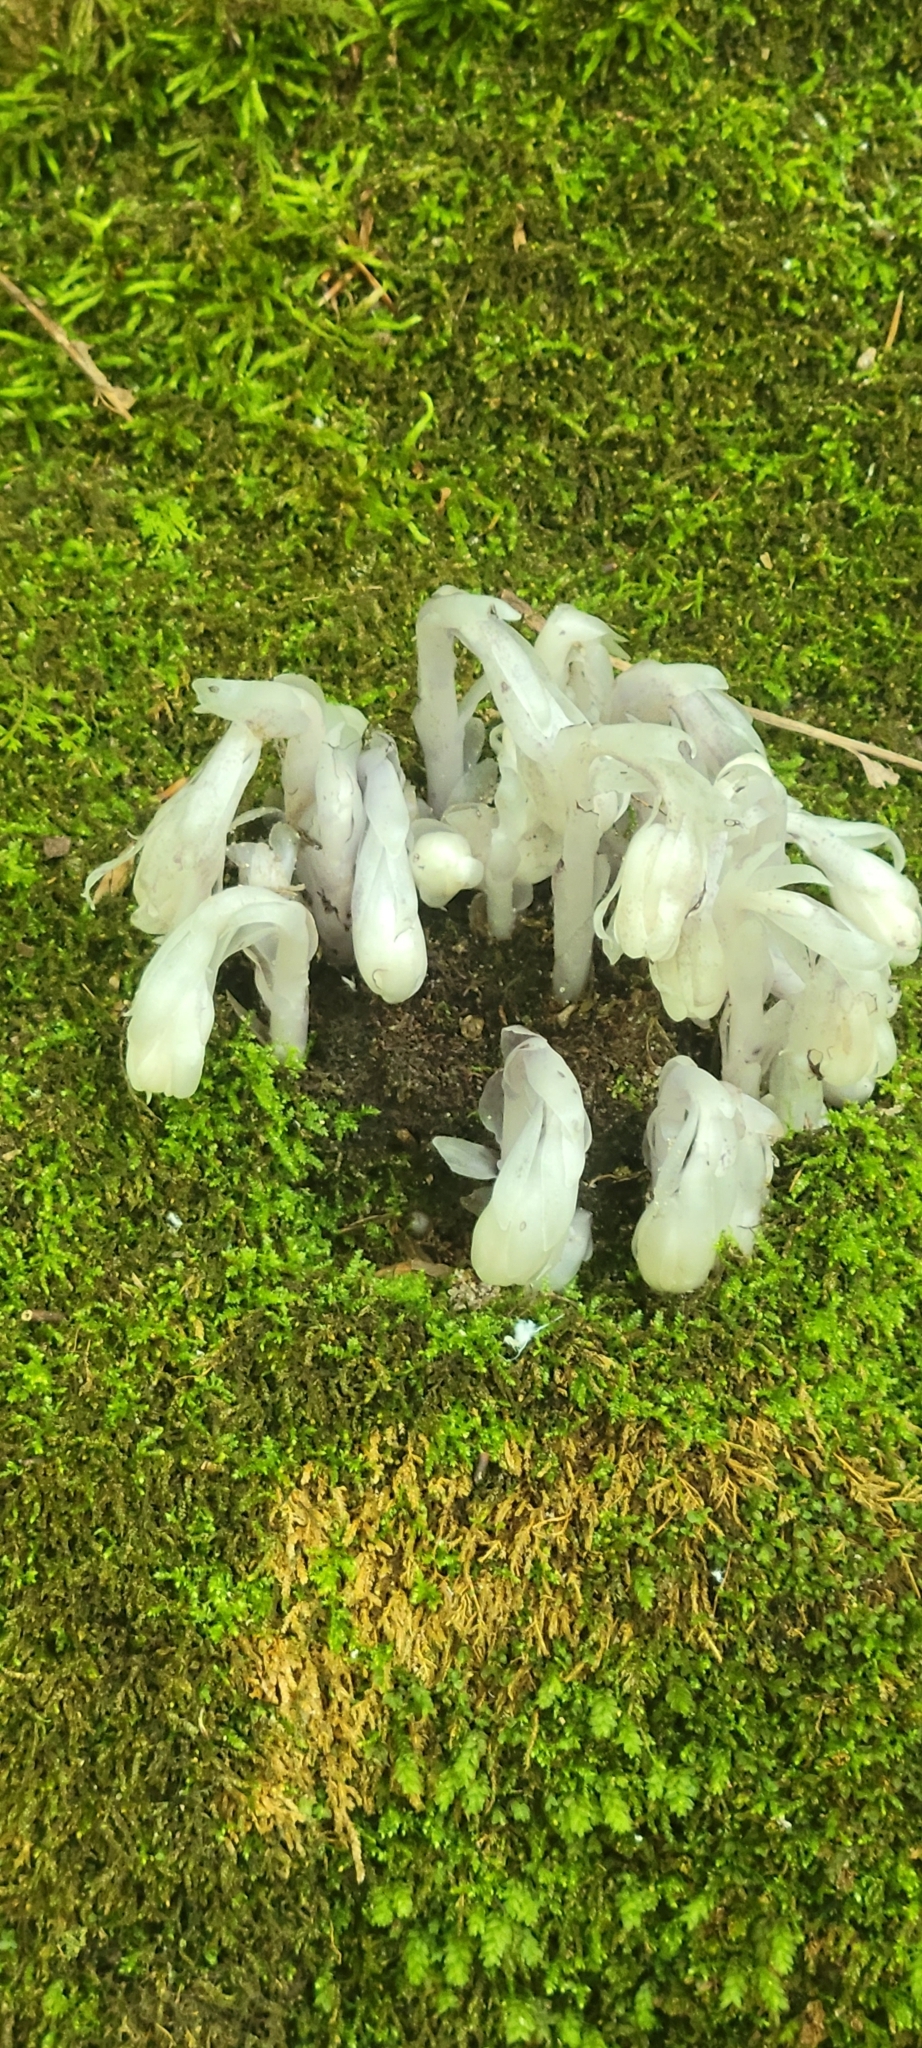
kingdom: Plantae
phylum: Tracheophyta
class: Magnoliopsida
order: Ericales
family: Ericaceae
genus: Monotropa
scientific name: Monotropa uniflora
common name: Convulsion root
